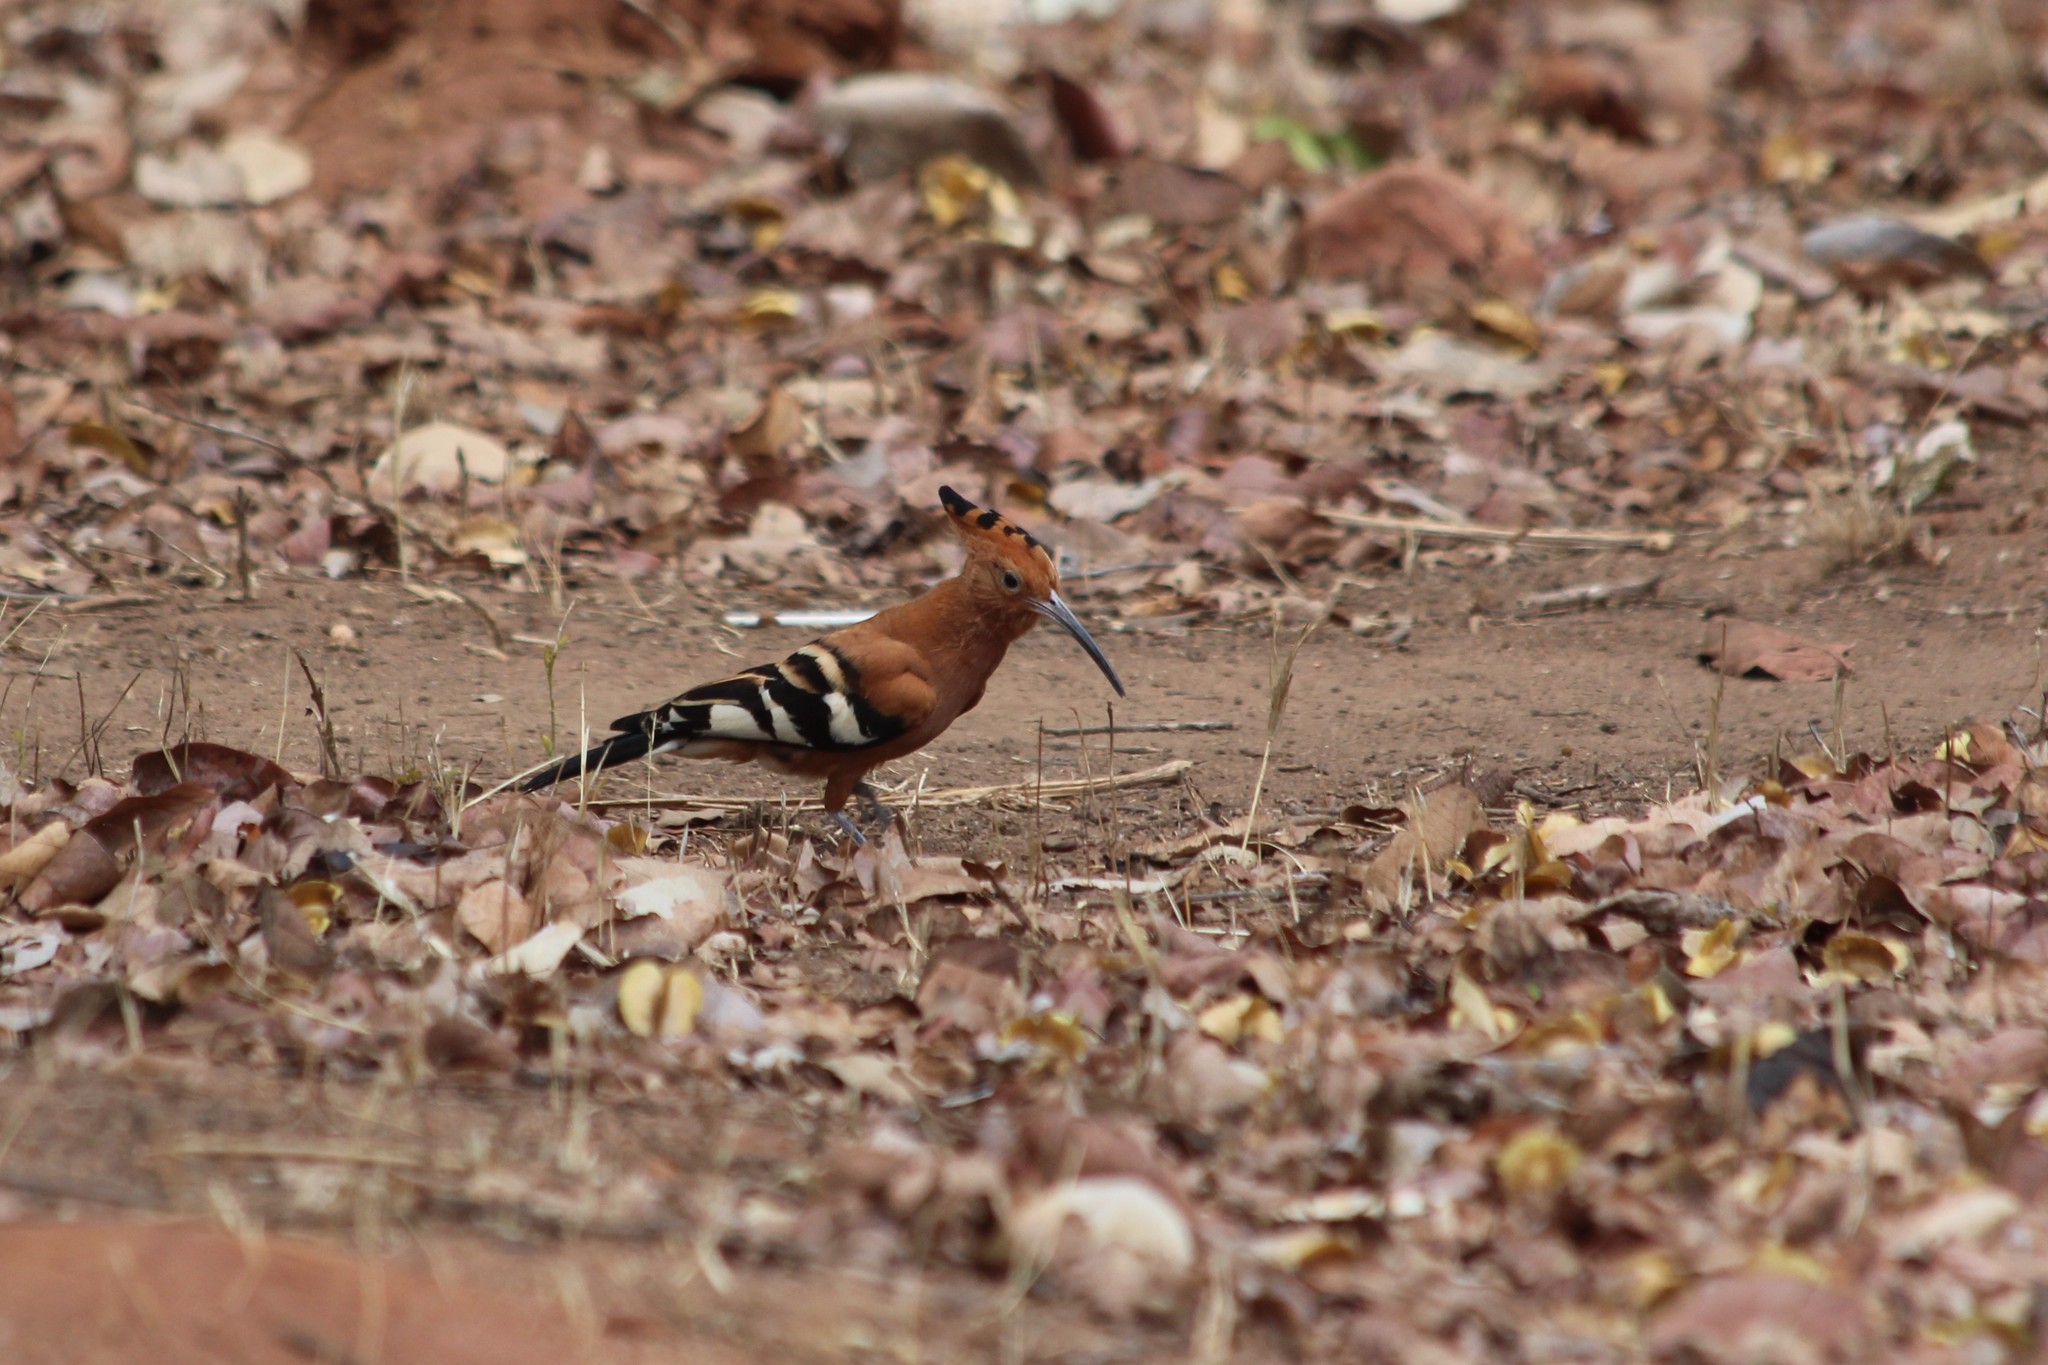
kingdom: Animalia
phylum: Chordata
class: Aves
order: Bucerotiformes
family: Upupidae
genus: Upupa
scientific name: Upupa epops
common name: Eurasian hoopoe
